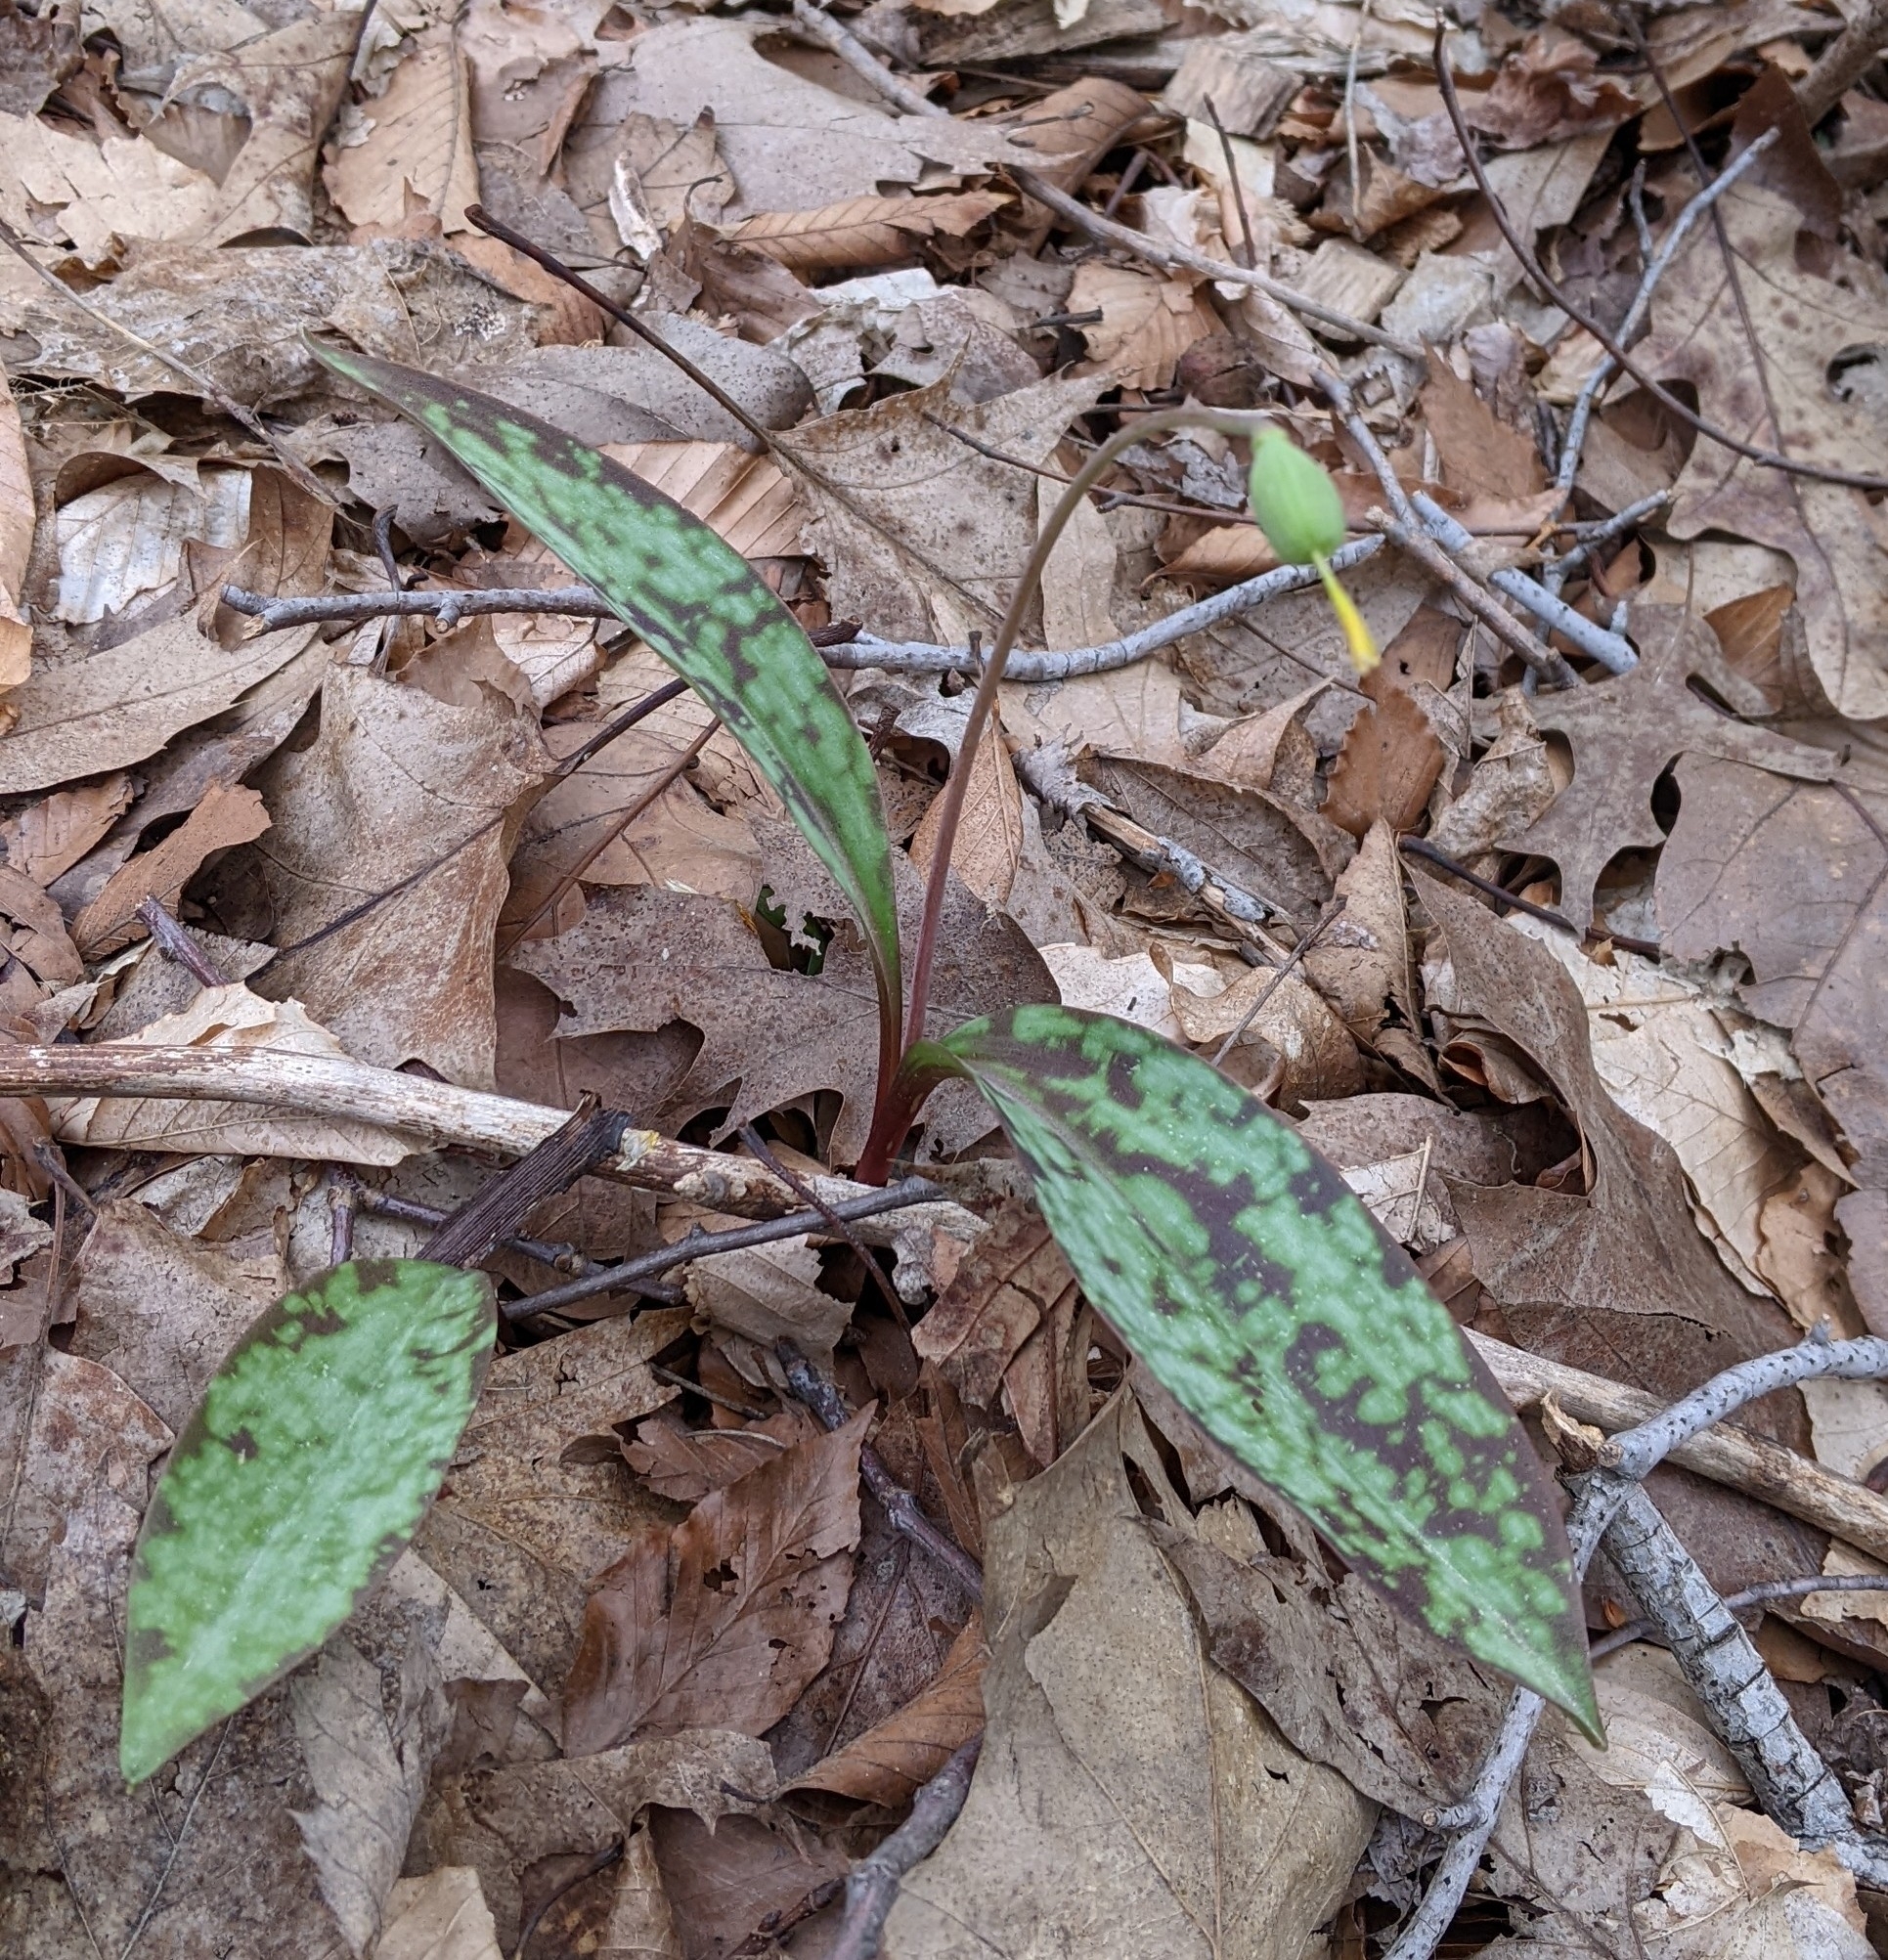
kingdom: Plantae
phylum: Tracheophyta
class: Liliopsida
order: Liliales
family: Liliaceae
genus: Erythronium
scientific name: Erythronium americanum
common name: Yellow adder's-tongue
